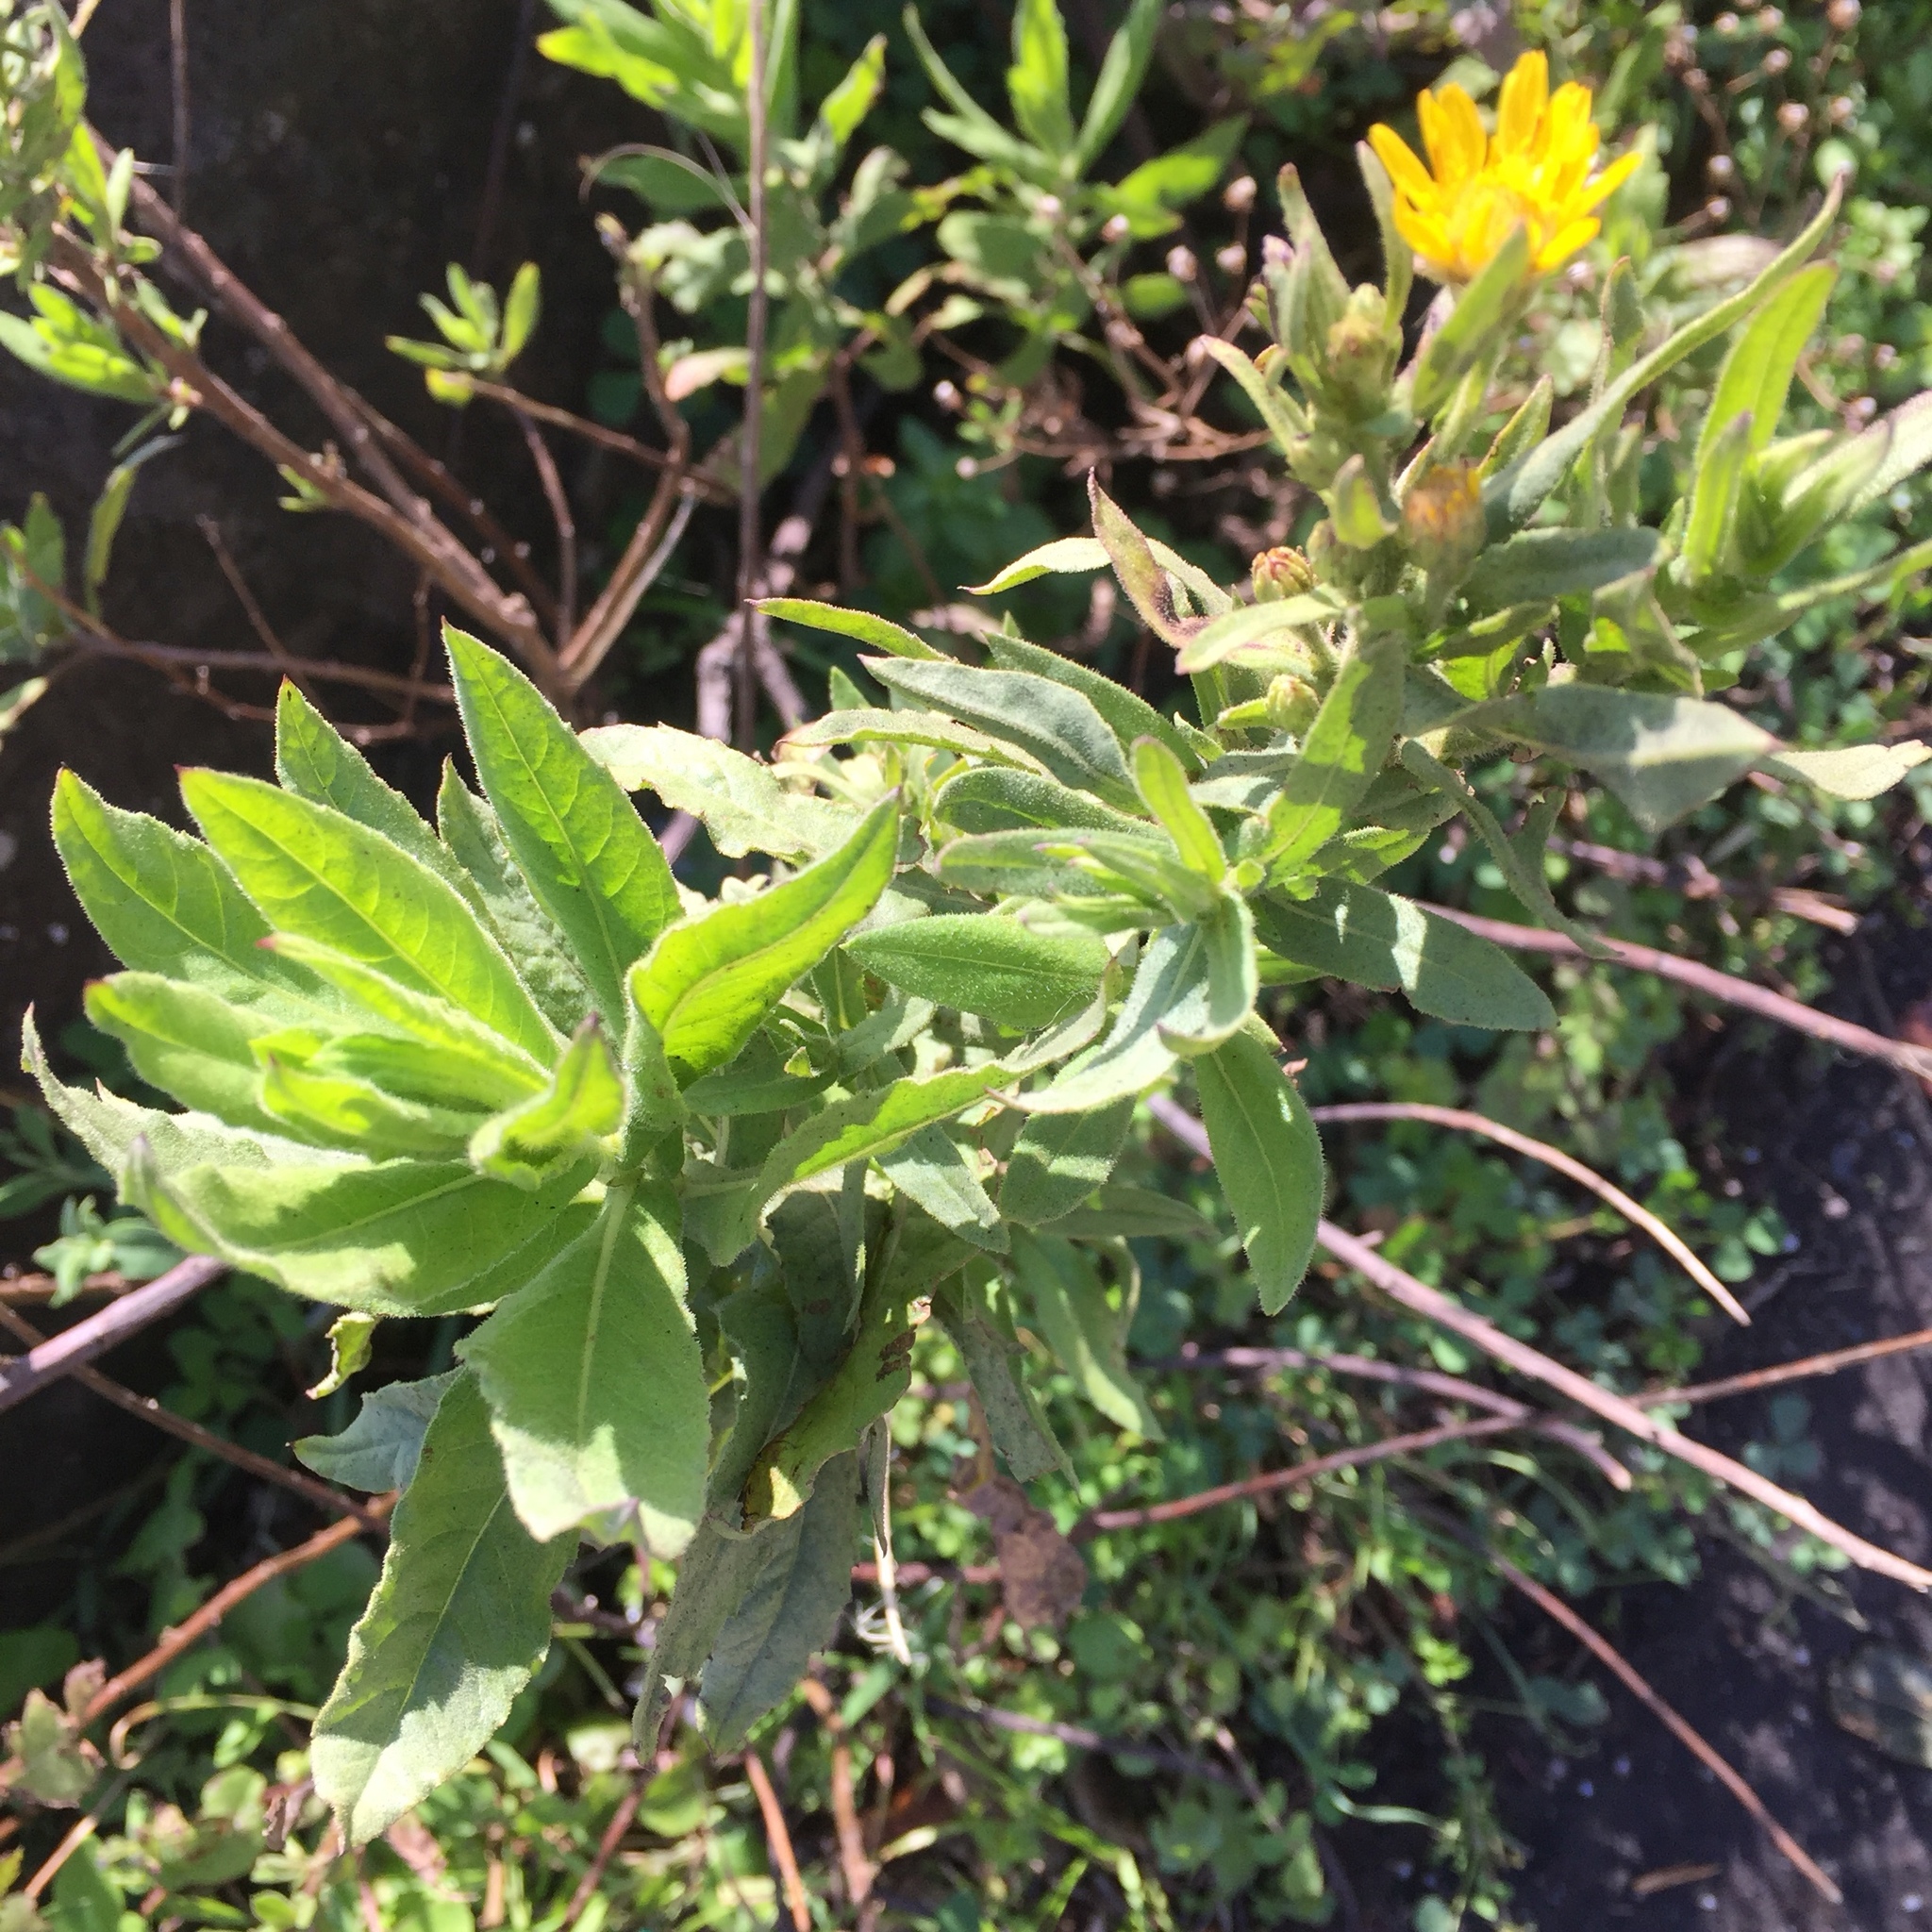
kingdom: Plantae
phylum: Tracheophyta
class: Magnoliopsida
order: Asterales
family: Asteraceae
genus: Dittrichia
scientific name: Dittrichia viscosa
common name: Woody fleabane
